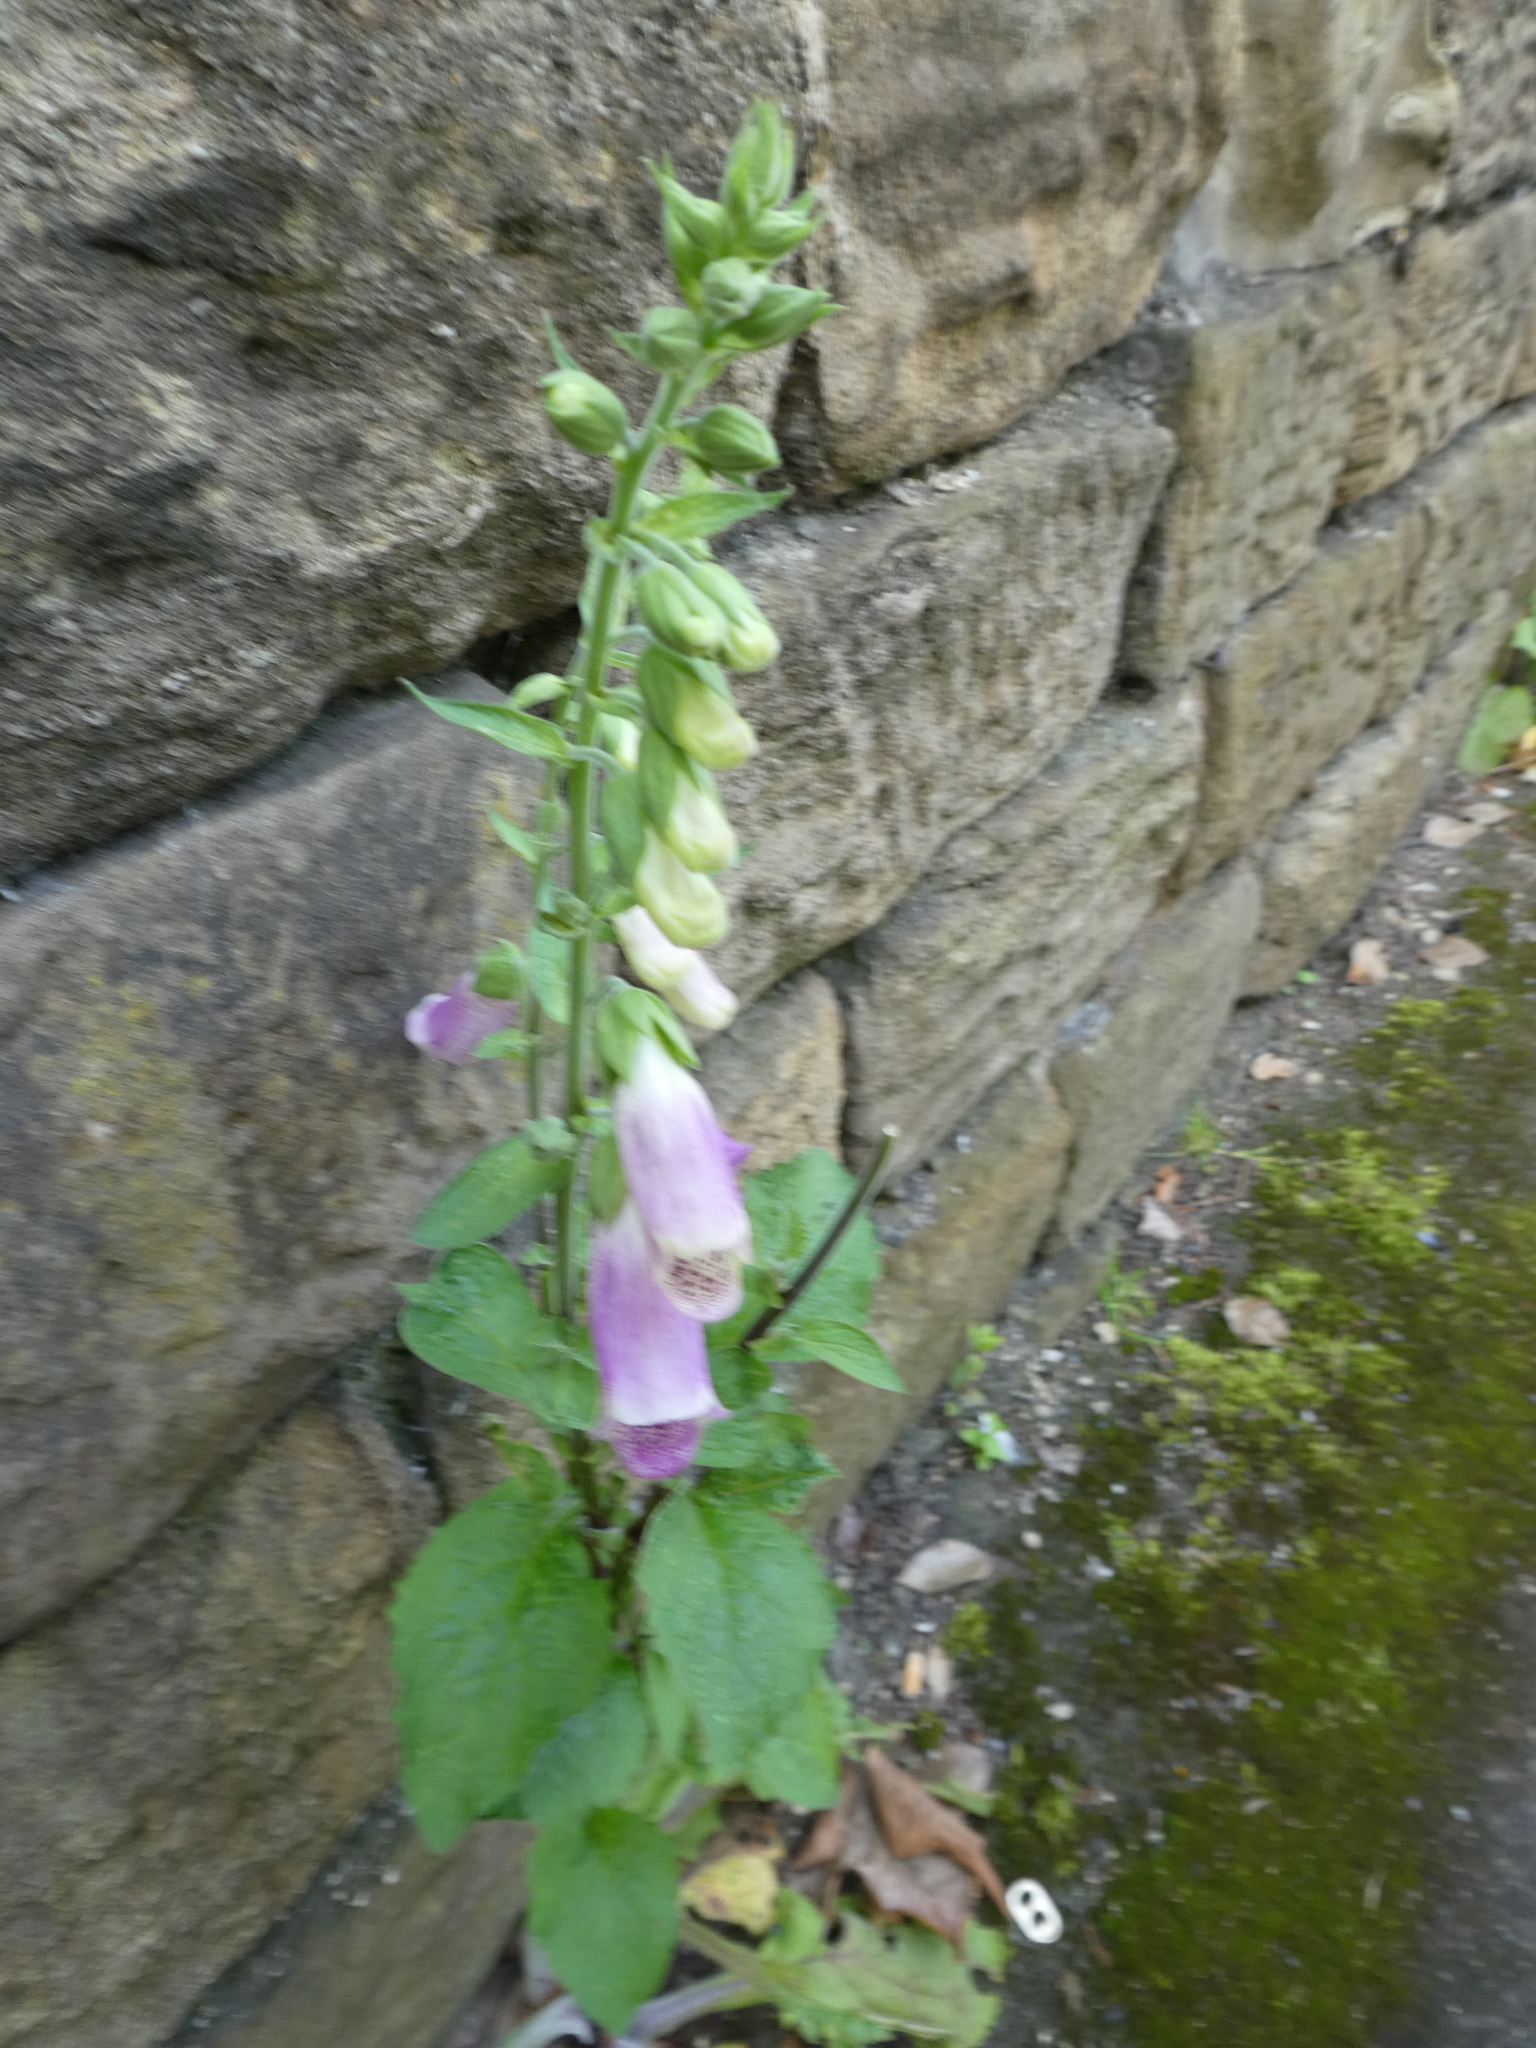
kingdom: Plantae
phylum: Tracheophyta
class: Magnoliopsida
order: Lamiales
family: Plantaginaceae
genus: Digitalis
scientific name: Digitalis purpurea
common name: Foxglove
